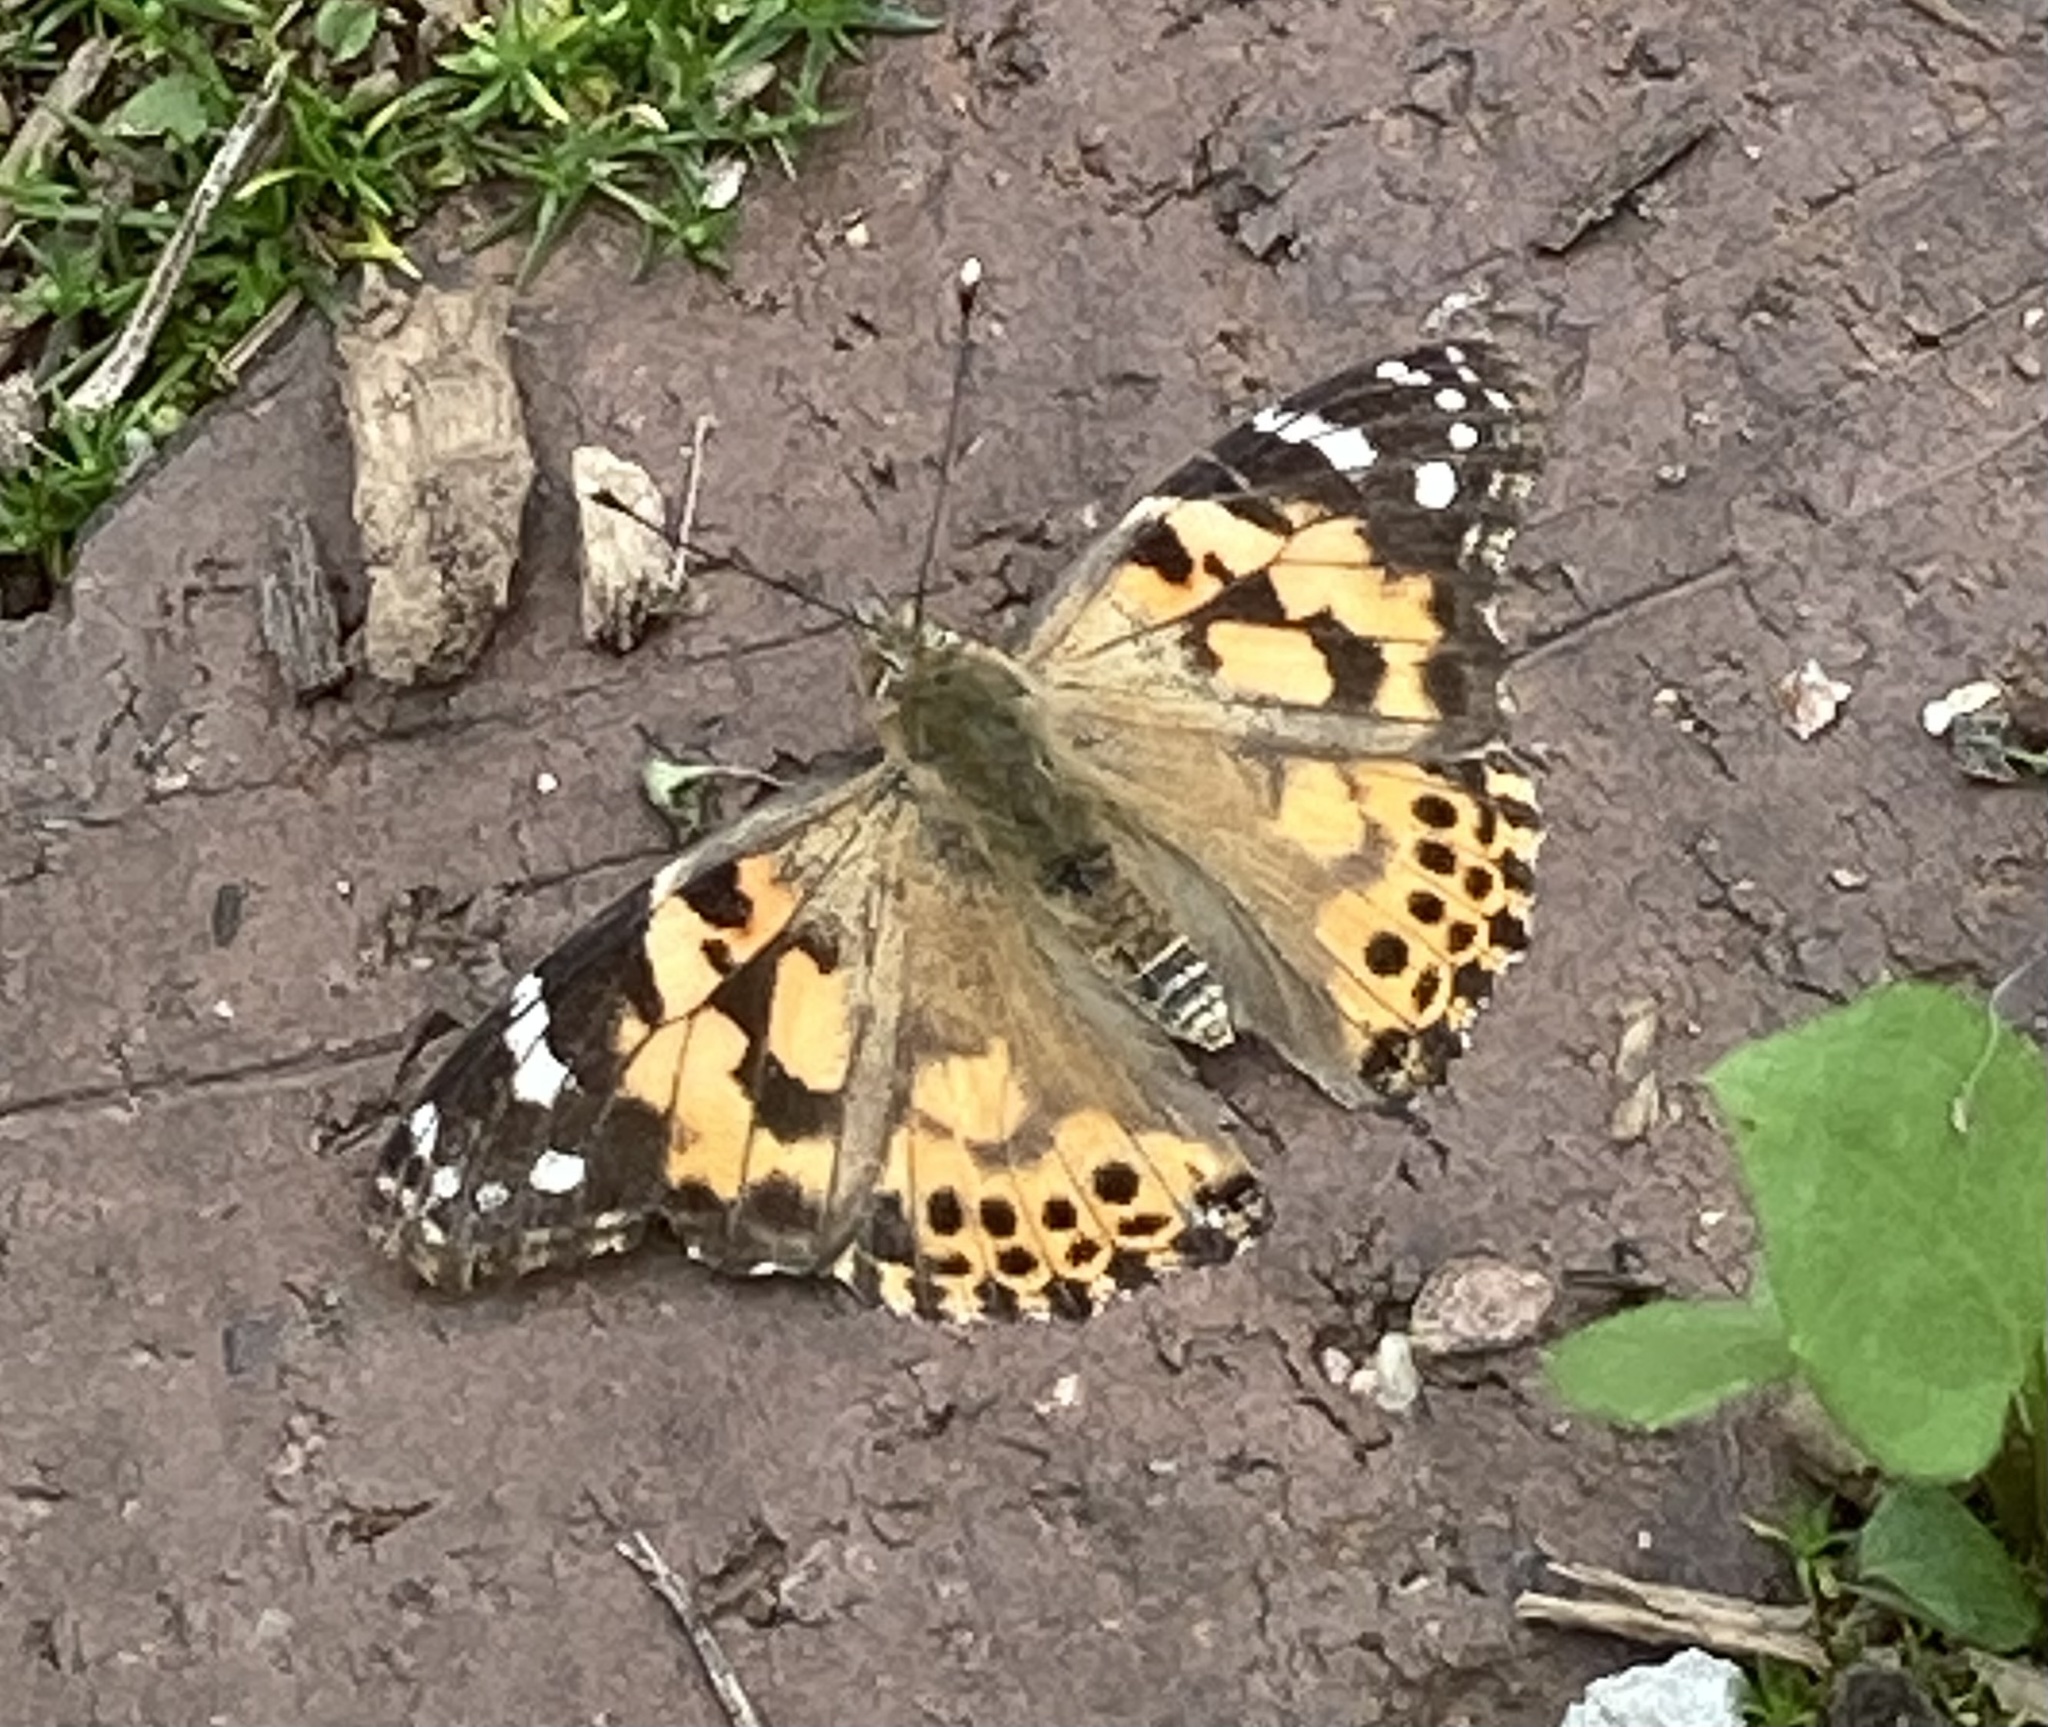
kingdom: Animalia
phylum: Arthropoda
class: Insecta
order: Lepidoptera
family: Nymphalidae
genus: Vanessa
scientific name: Vanessa cardui
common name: Painted lady
